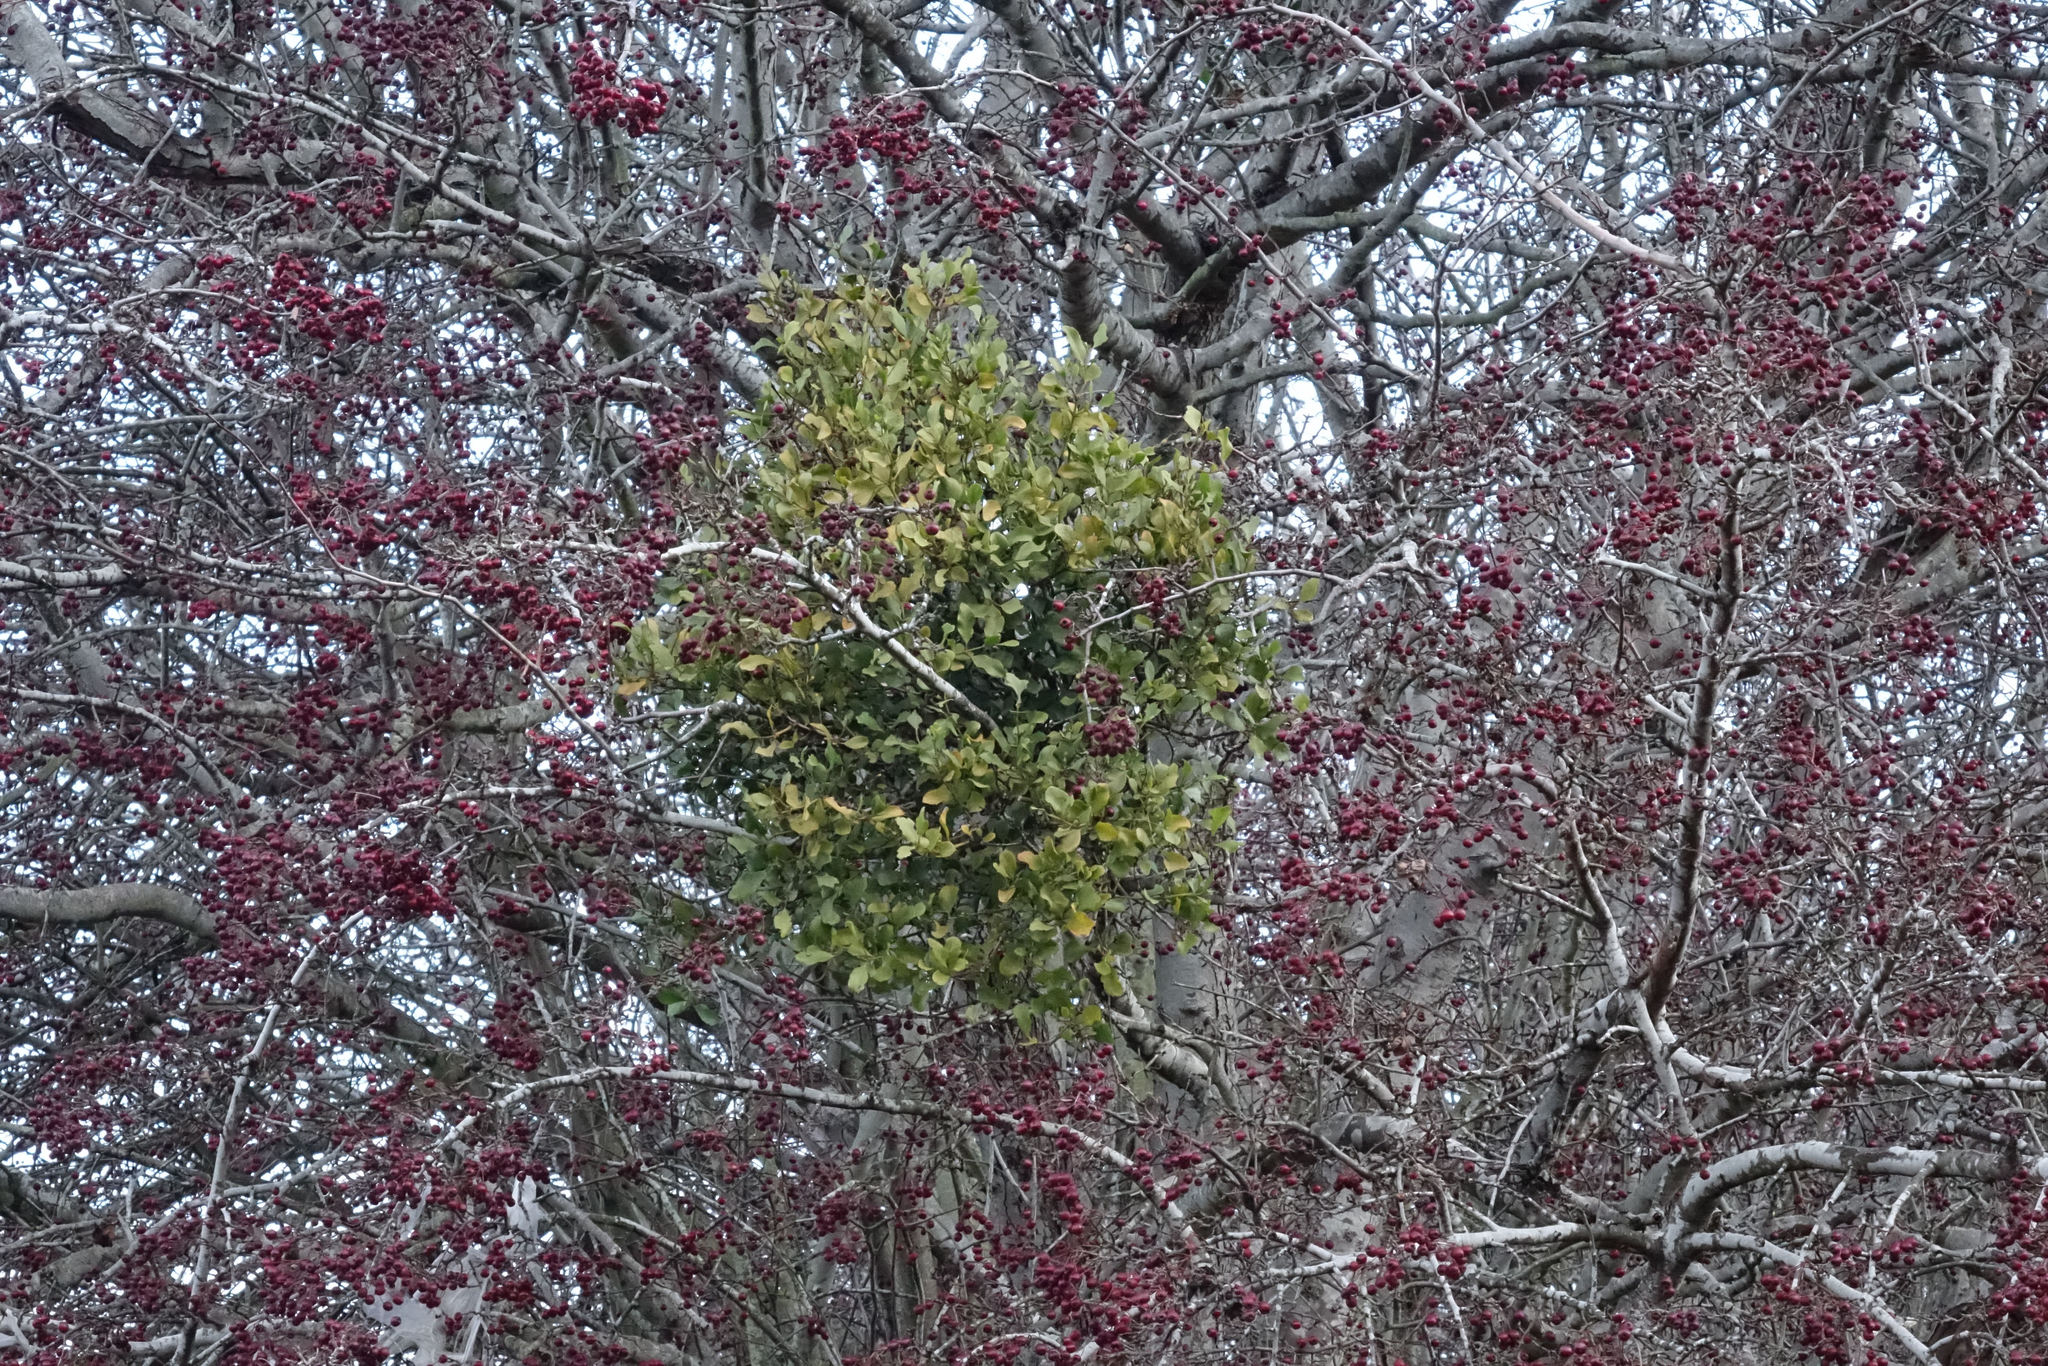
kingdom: Plantae
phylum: Tracheophyta
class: Magnoliopsida
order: Santalales
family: Loranthaceae
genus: Ileostylus
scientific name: Ileostylus micranthus
